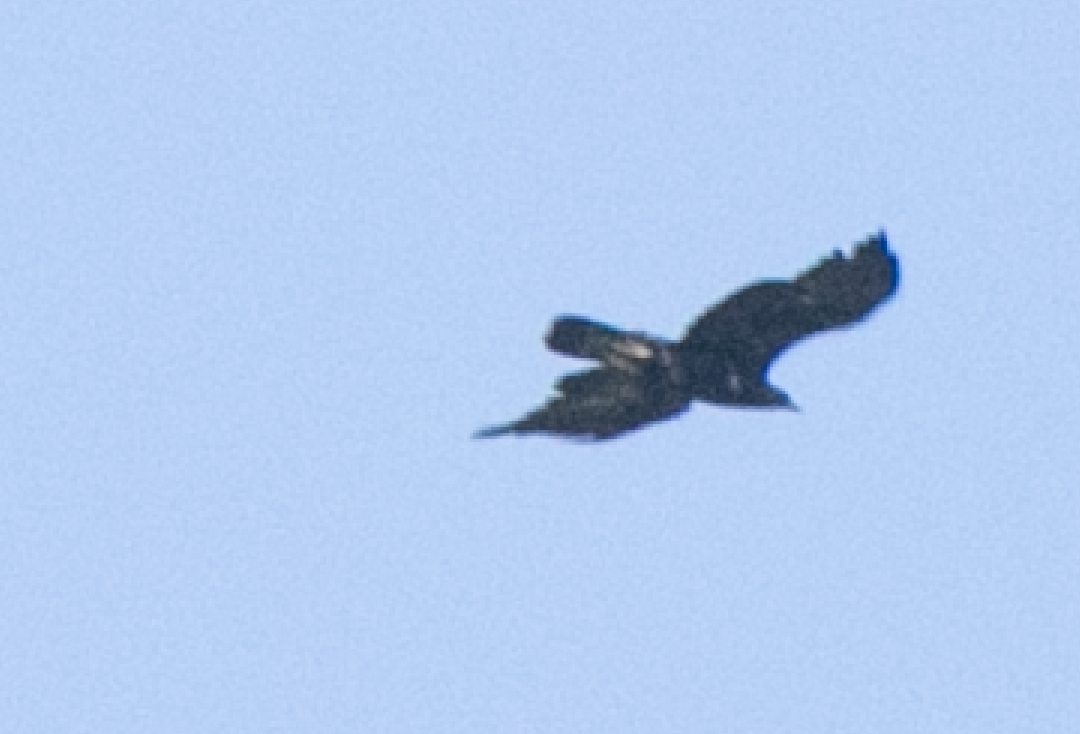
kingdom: Animalia
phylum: Chordata
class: Aves
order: Accipitriformes
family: Accipitridae
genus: Aquila
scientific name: Aquila chrysaetos
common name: Golden eagle
